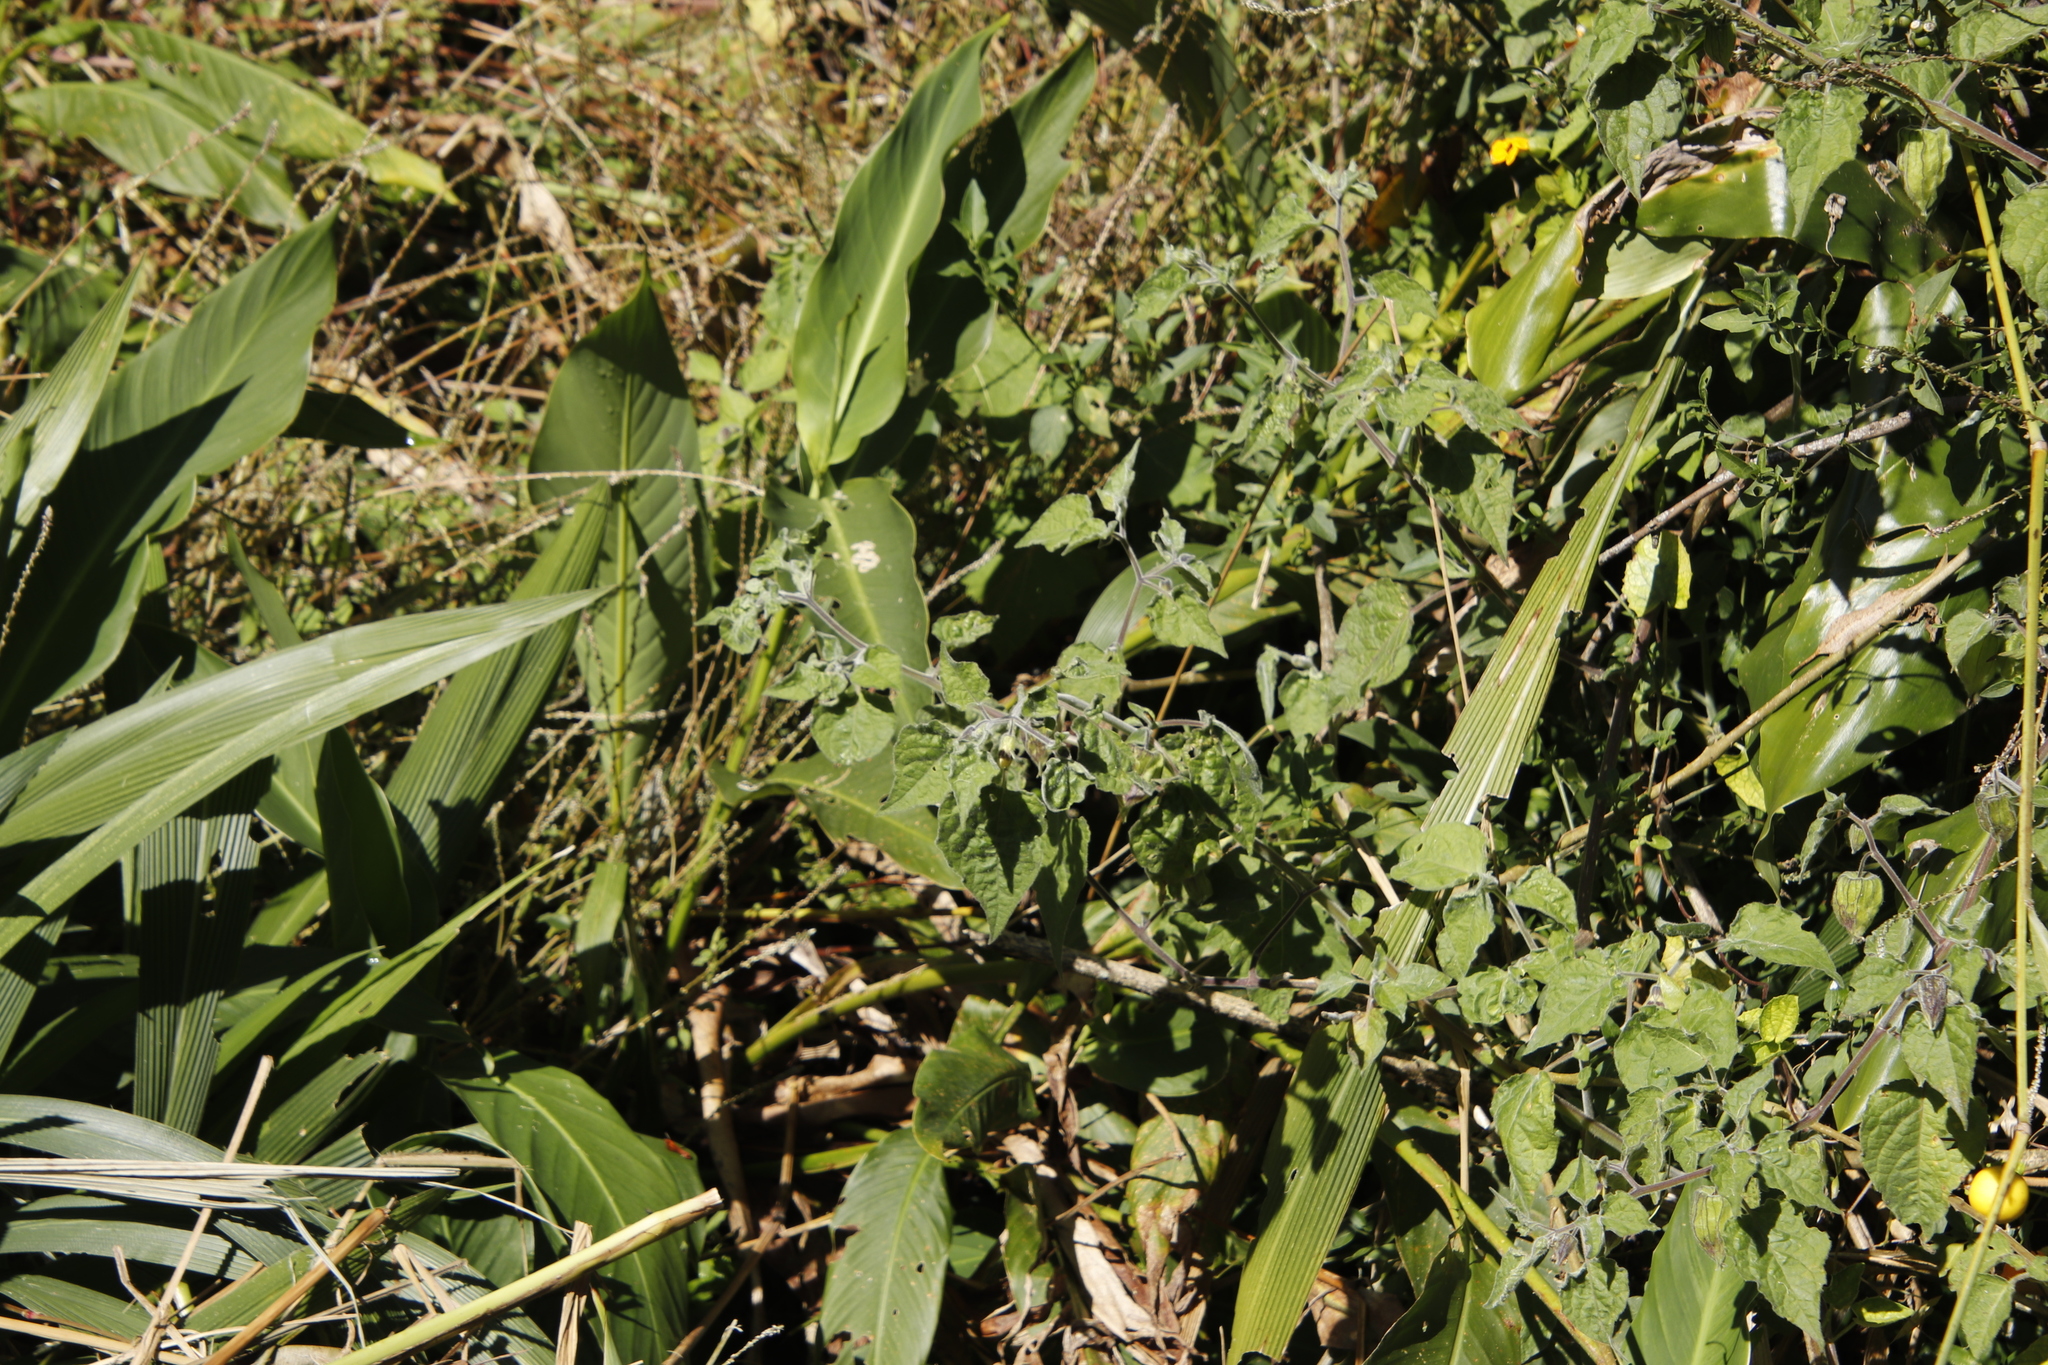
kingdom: Plantae
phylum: Tracheophyta
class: Magnoliopsida
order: Solanales
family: Solanaceae
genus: Physalis
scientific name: Physalis peruviana
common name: Cape-gooseberry
